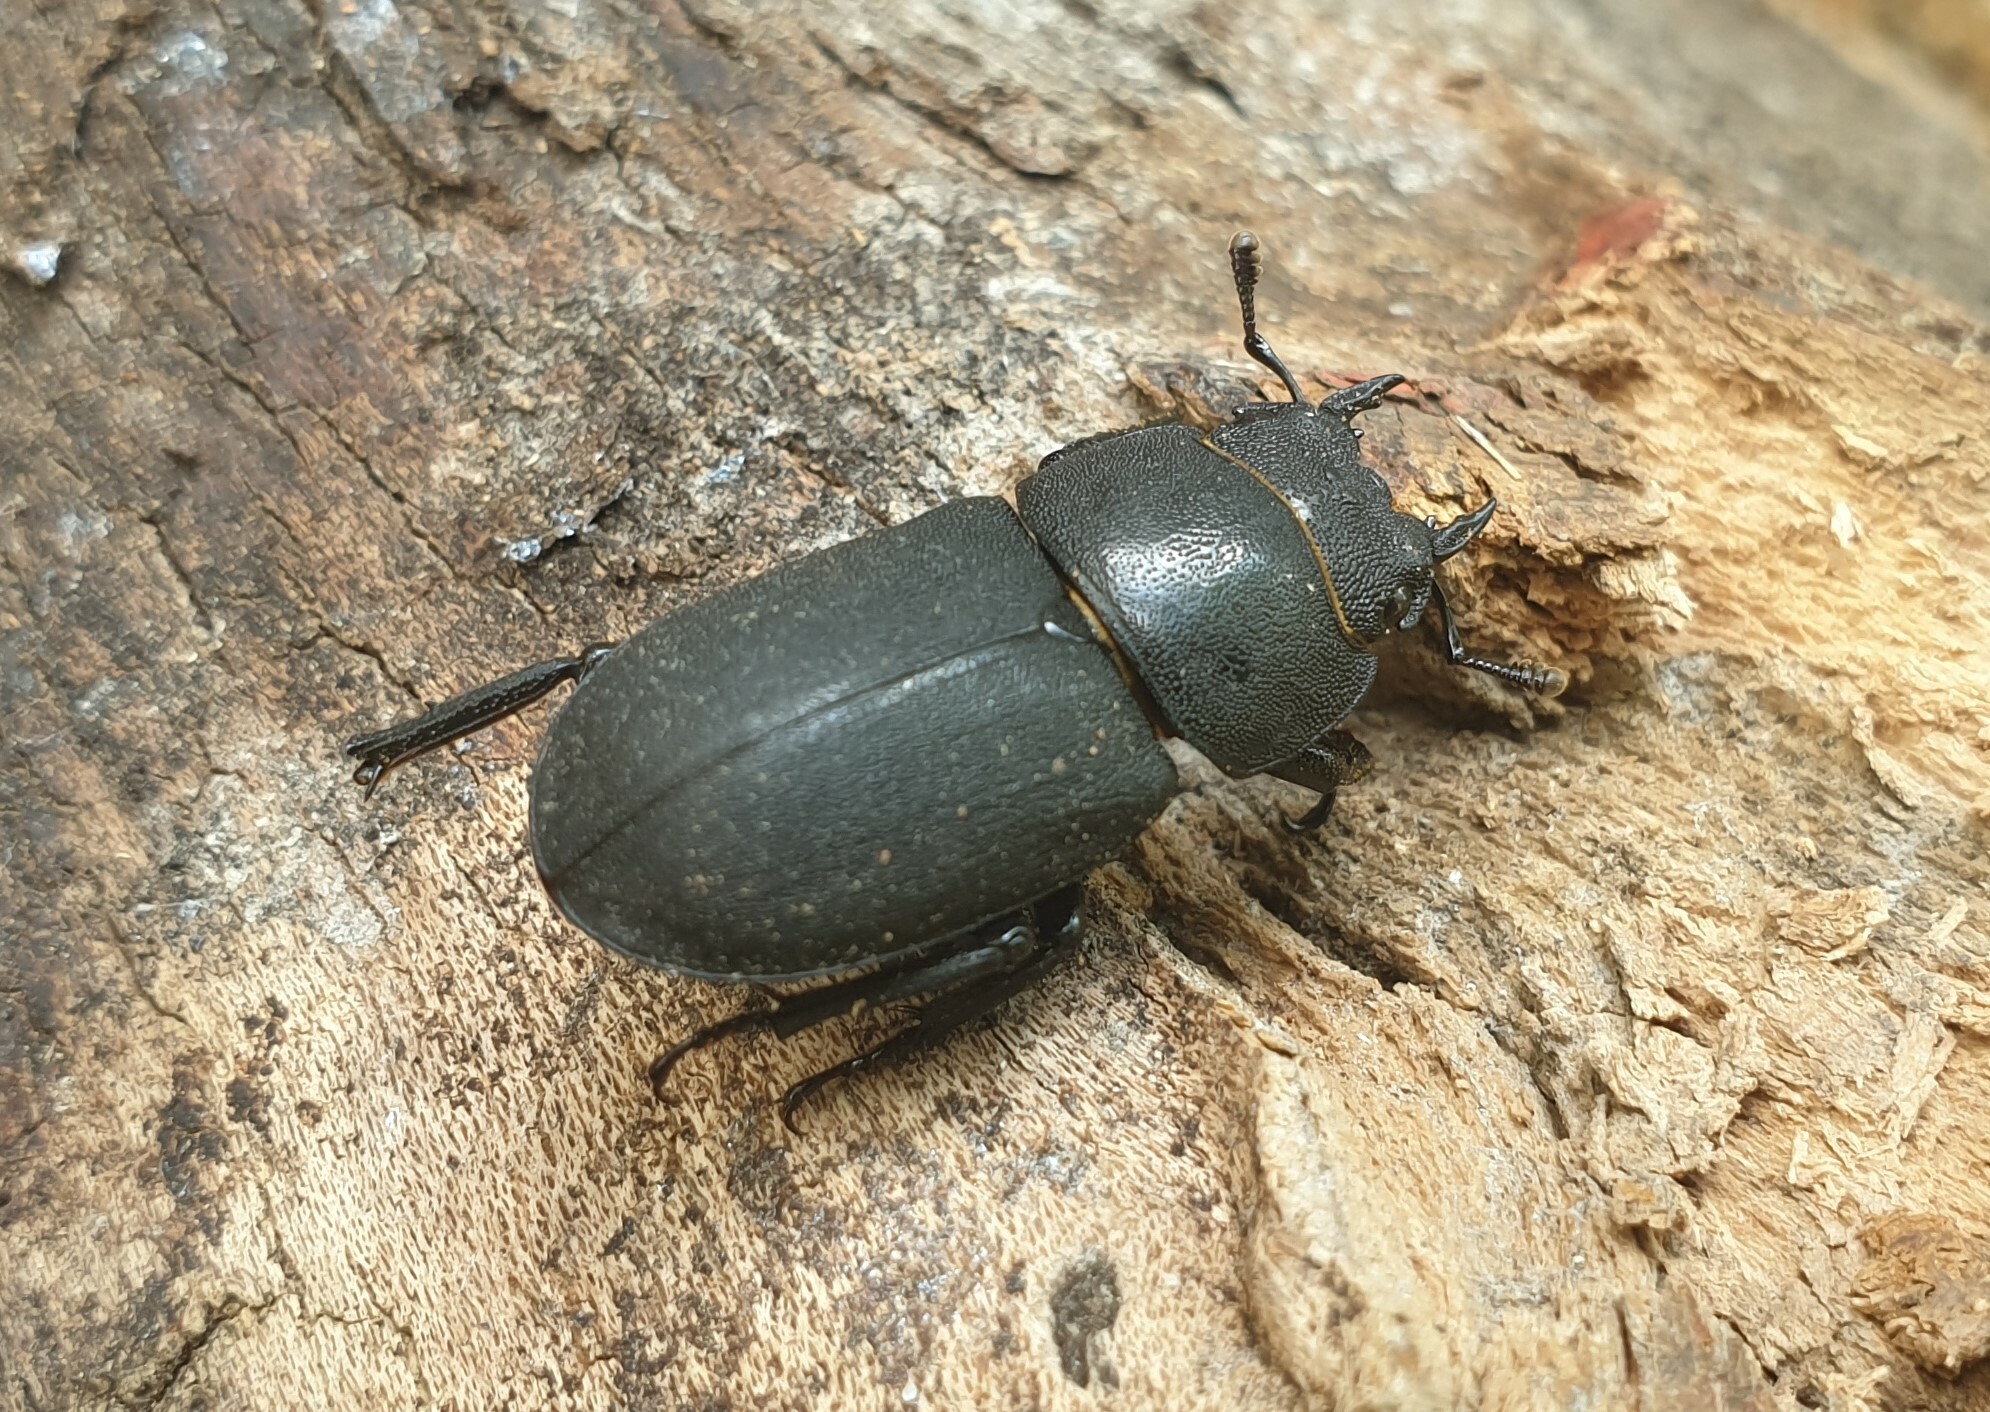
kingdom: Animalia
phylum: Arthropoda
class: Insecta
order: Coleoptera
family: Lucanidae
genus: Dorcus
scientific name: Dorcus parallelipipedus
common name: Lesser stag beetle
